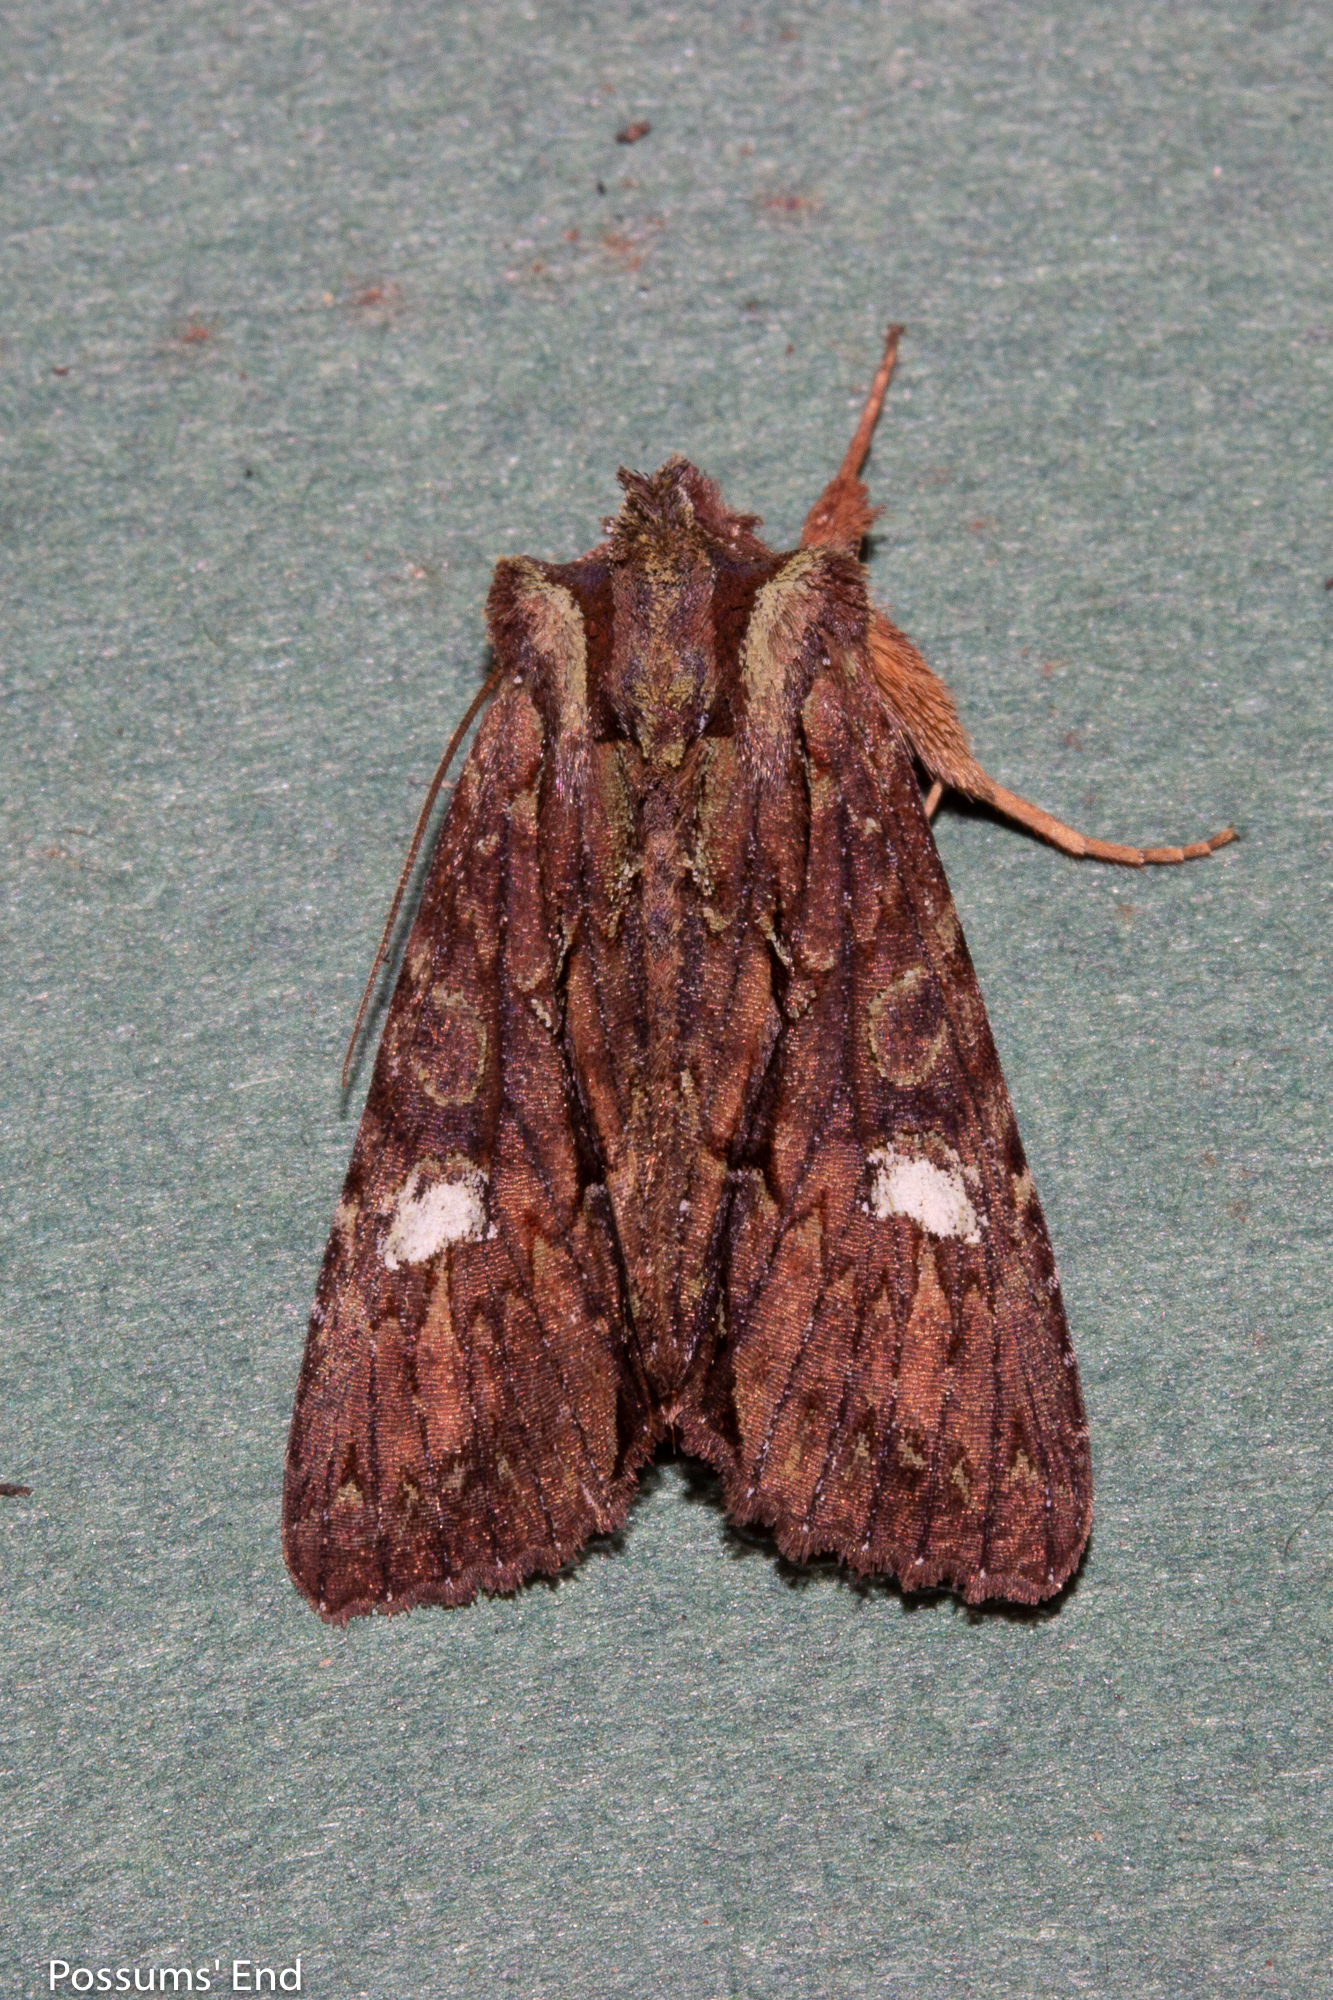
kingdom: Animalia
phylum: Arthropoda
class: Insecta
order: Lepidoptera
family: Noctuidae
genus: Meterana
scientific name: Meterana diatmeta
